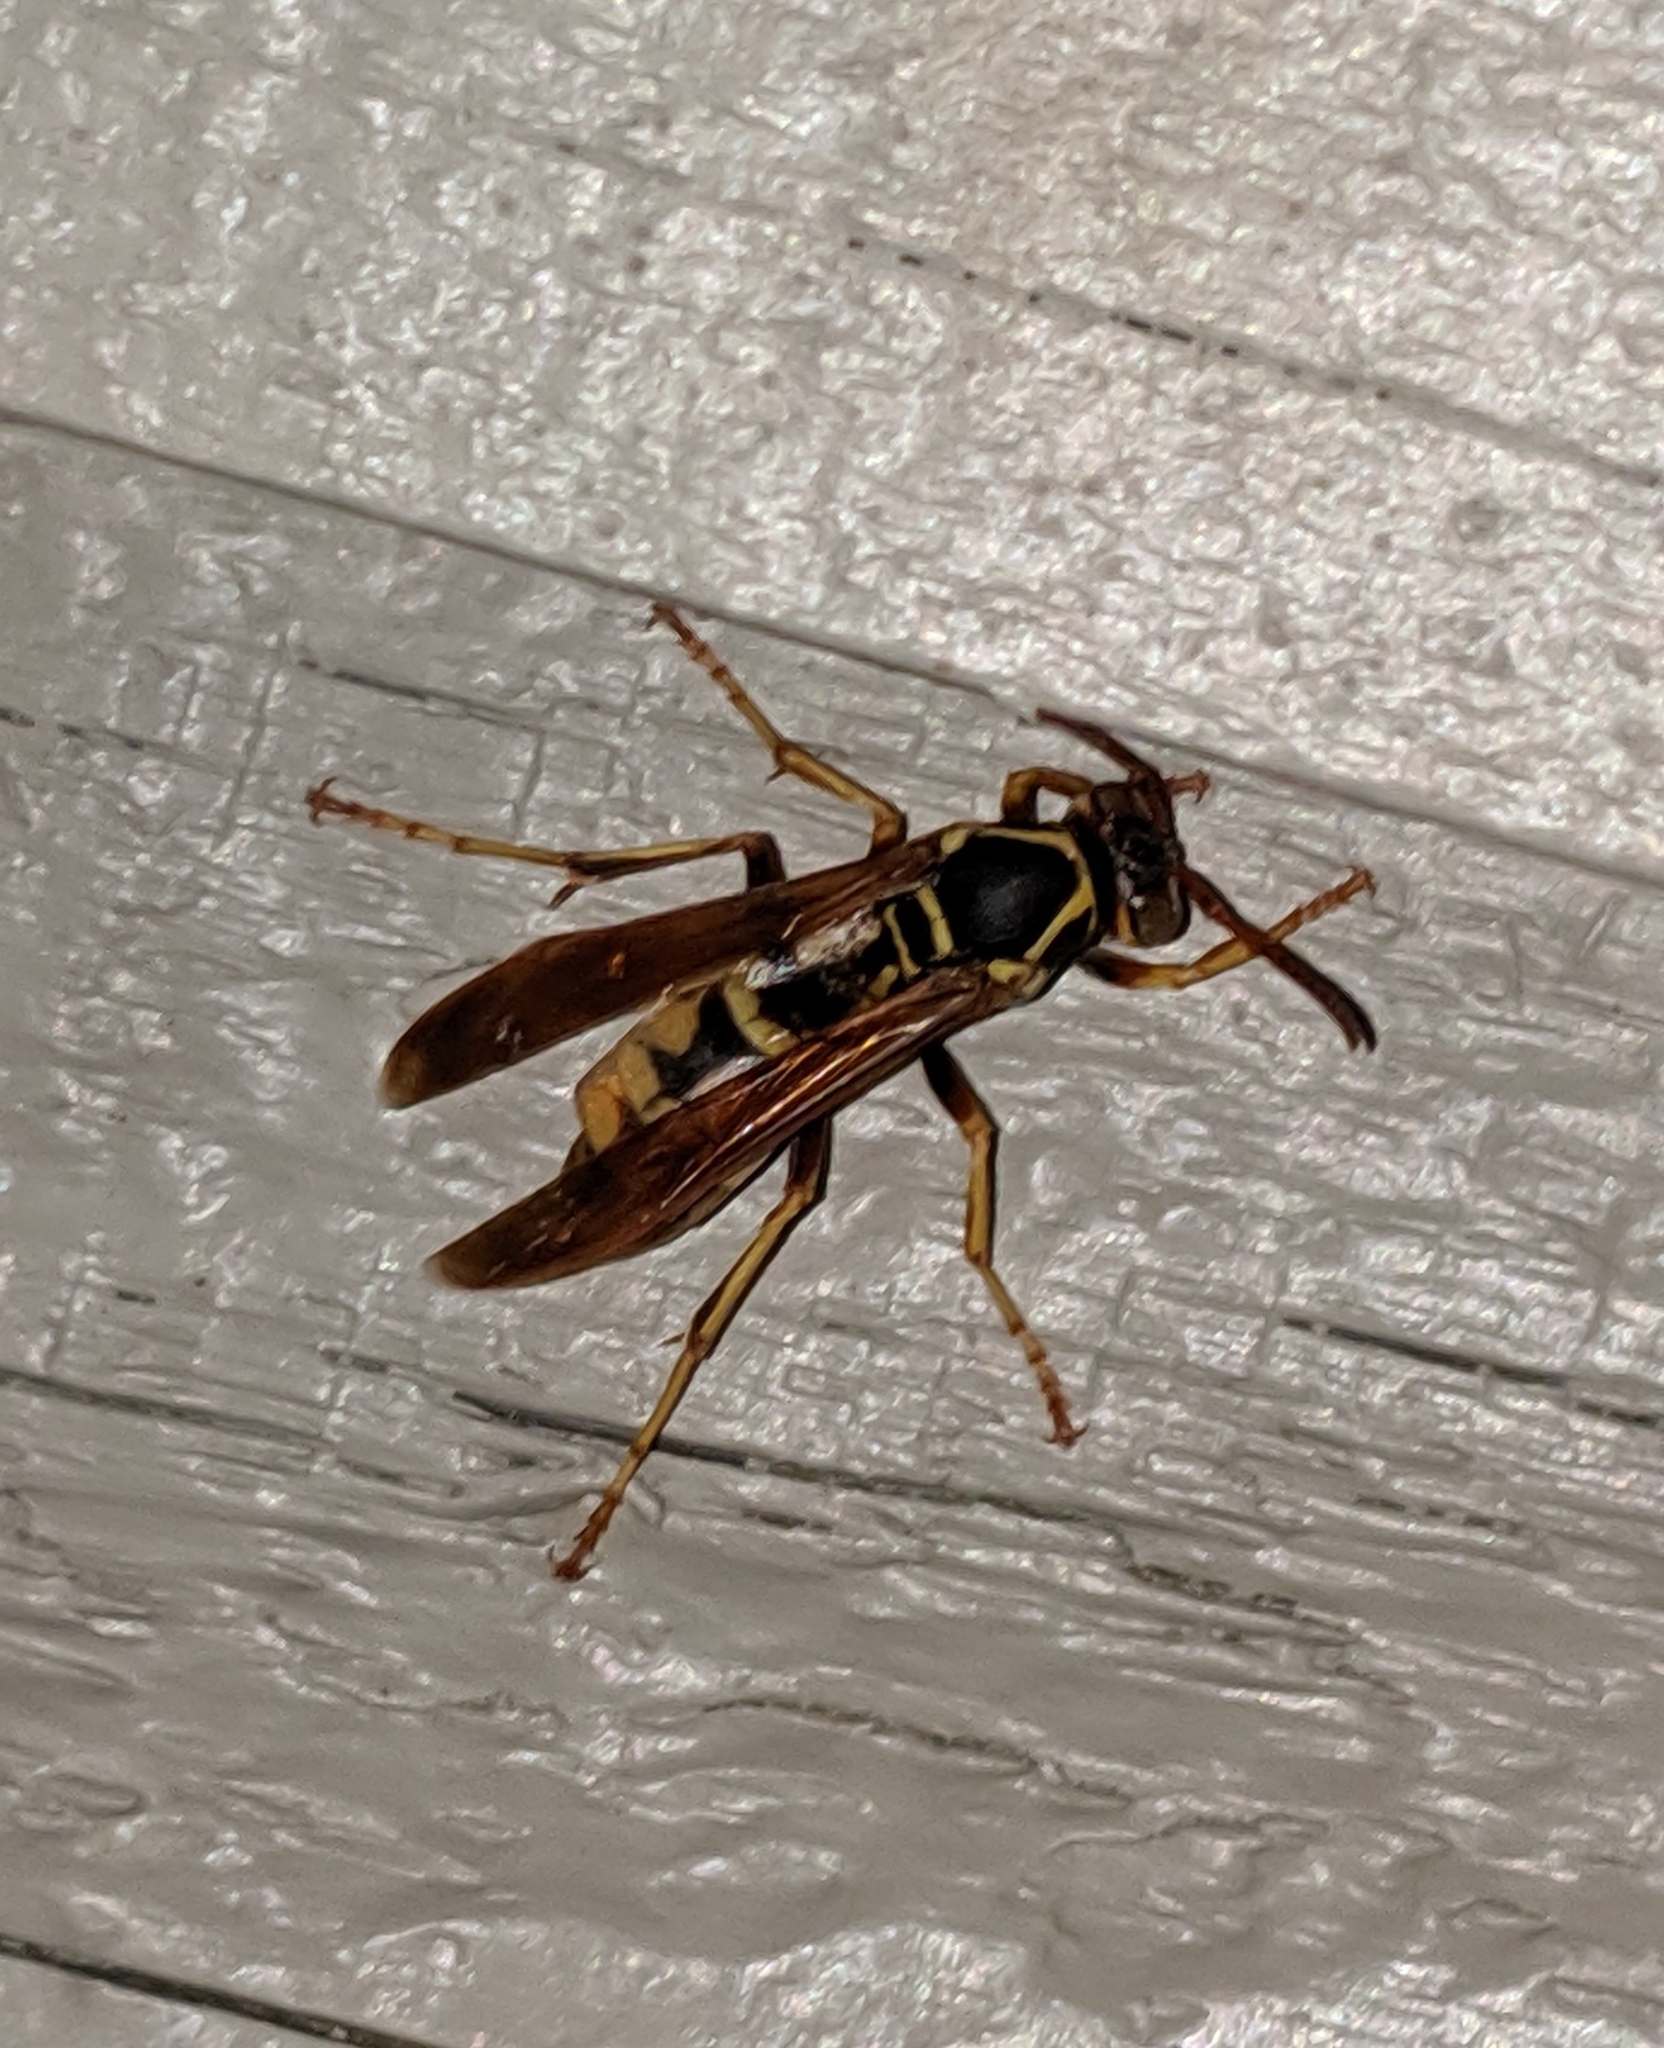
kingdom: Animalia
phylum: Arthropoda
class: Insecta
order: Hymenoptera
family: Eumenidae
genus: Polistes
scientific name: Polistes aurifer
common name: Paper wasp
